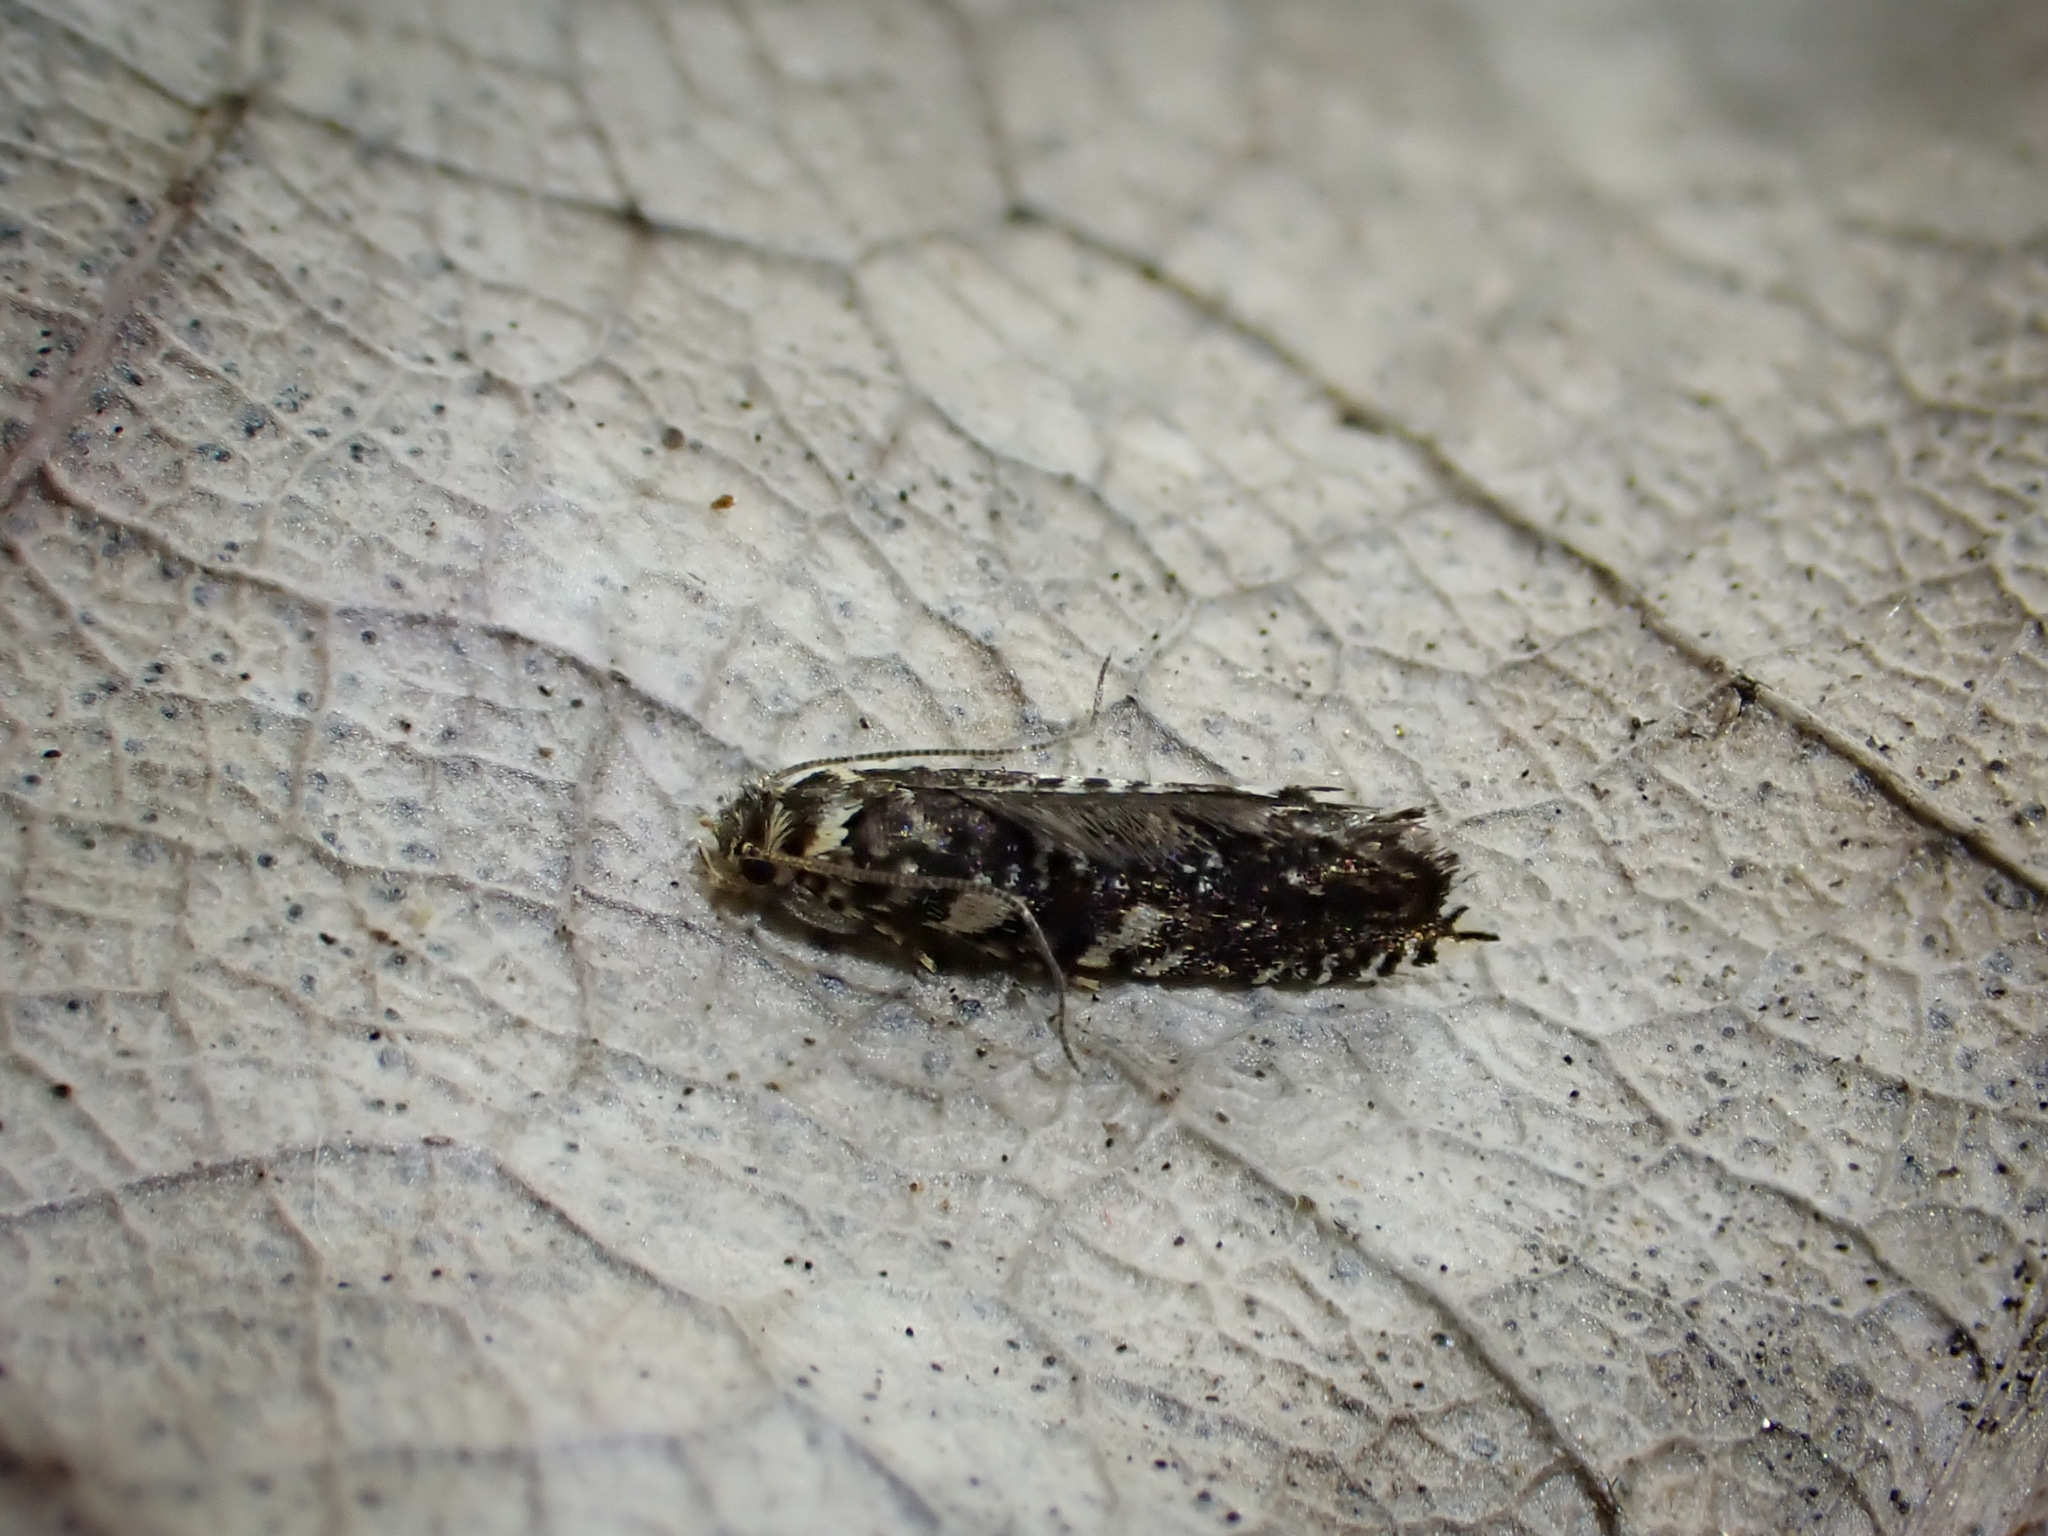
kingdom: Animalia
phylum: Arthropoda
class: Insecta
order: Lepidoptera
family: Tineidae
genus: Tinea
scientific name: Tinea sphenocosma
